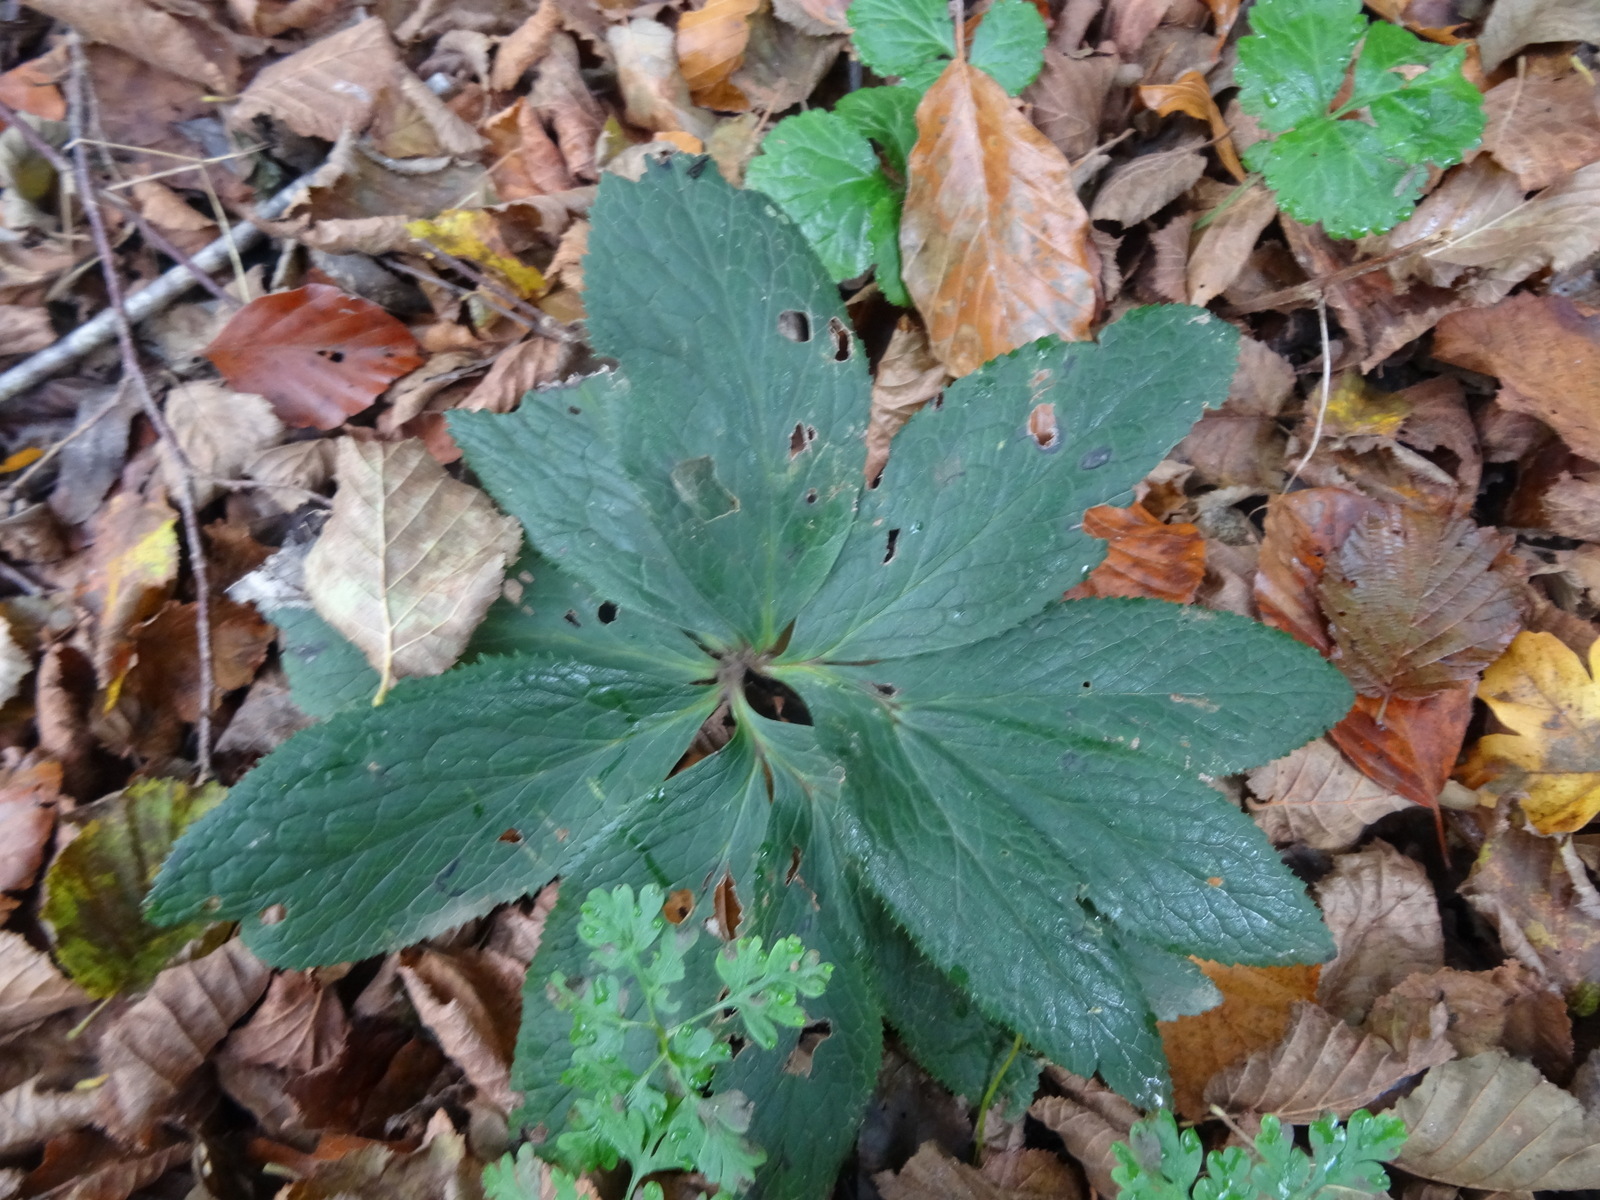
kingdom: Plantae
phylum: Tracheophyta
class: Magnoliopsida
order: Ranunculales
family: Ranunculaceae
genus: Helleborus
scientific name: Helleborus viridis
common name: Green hellebore
